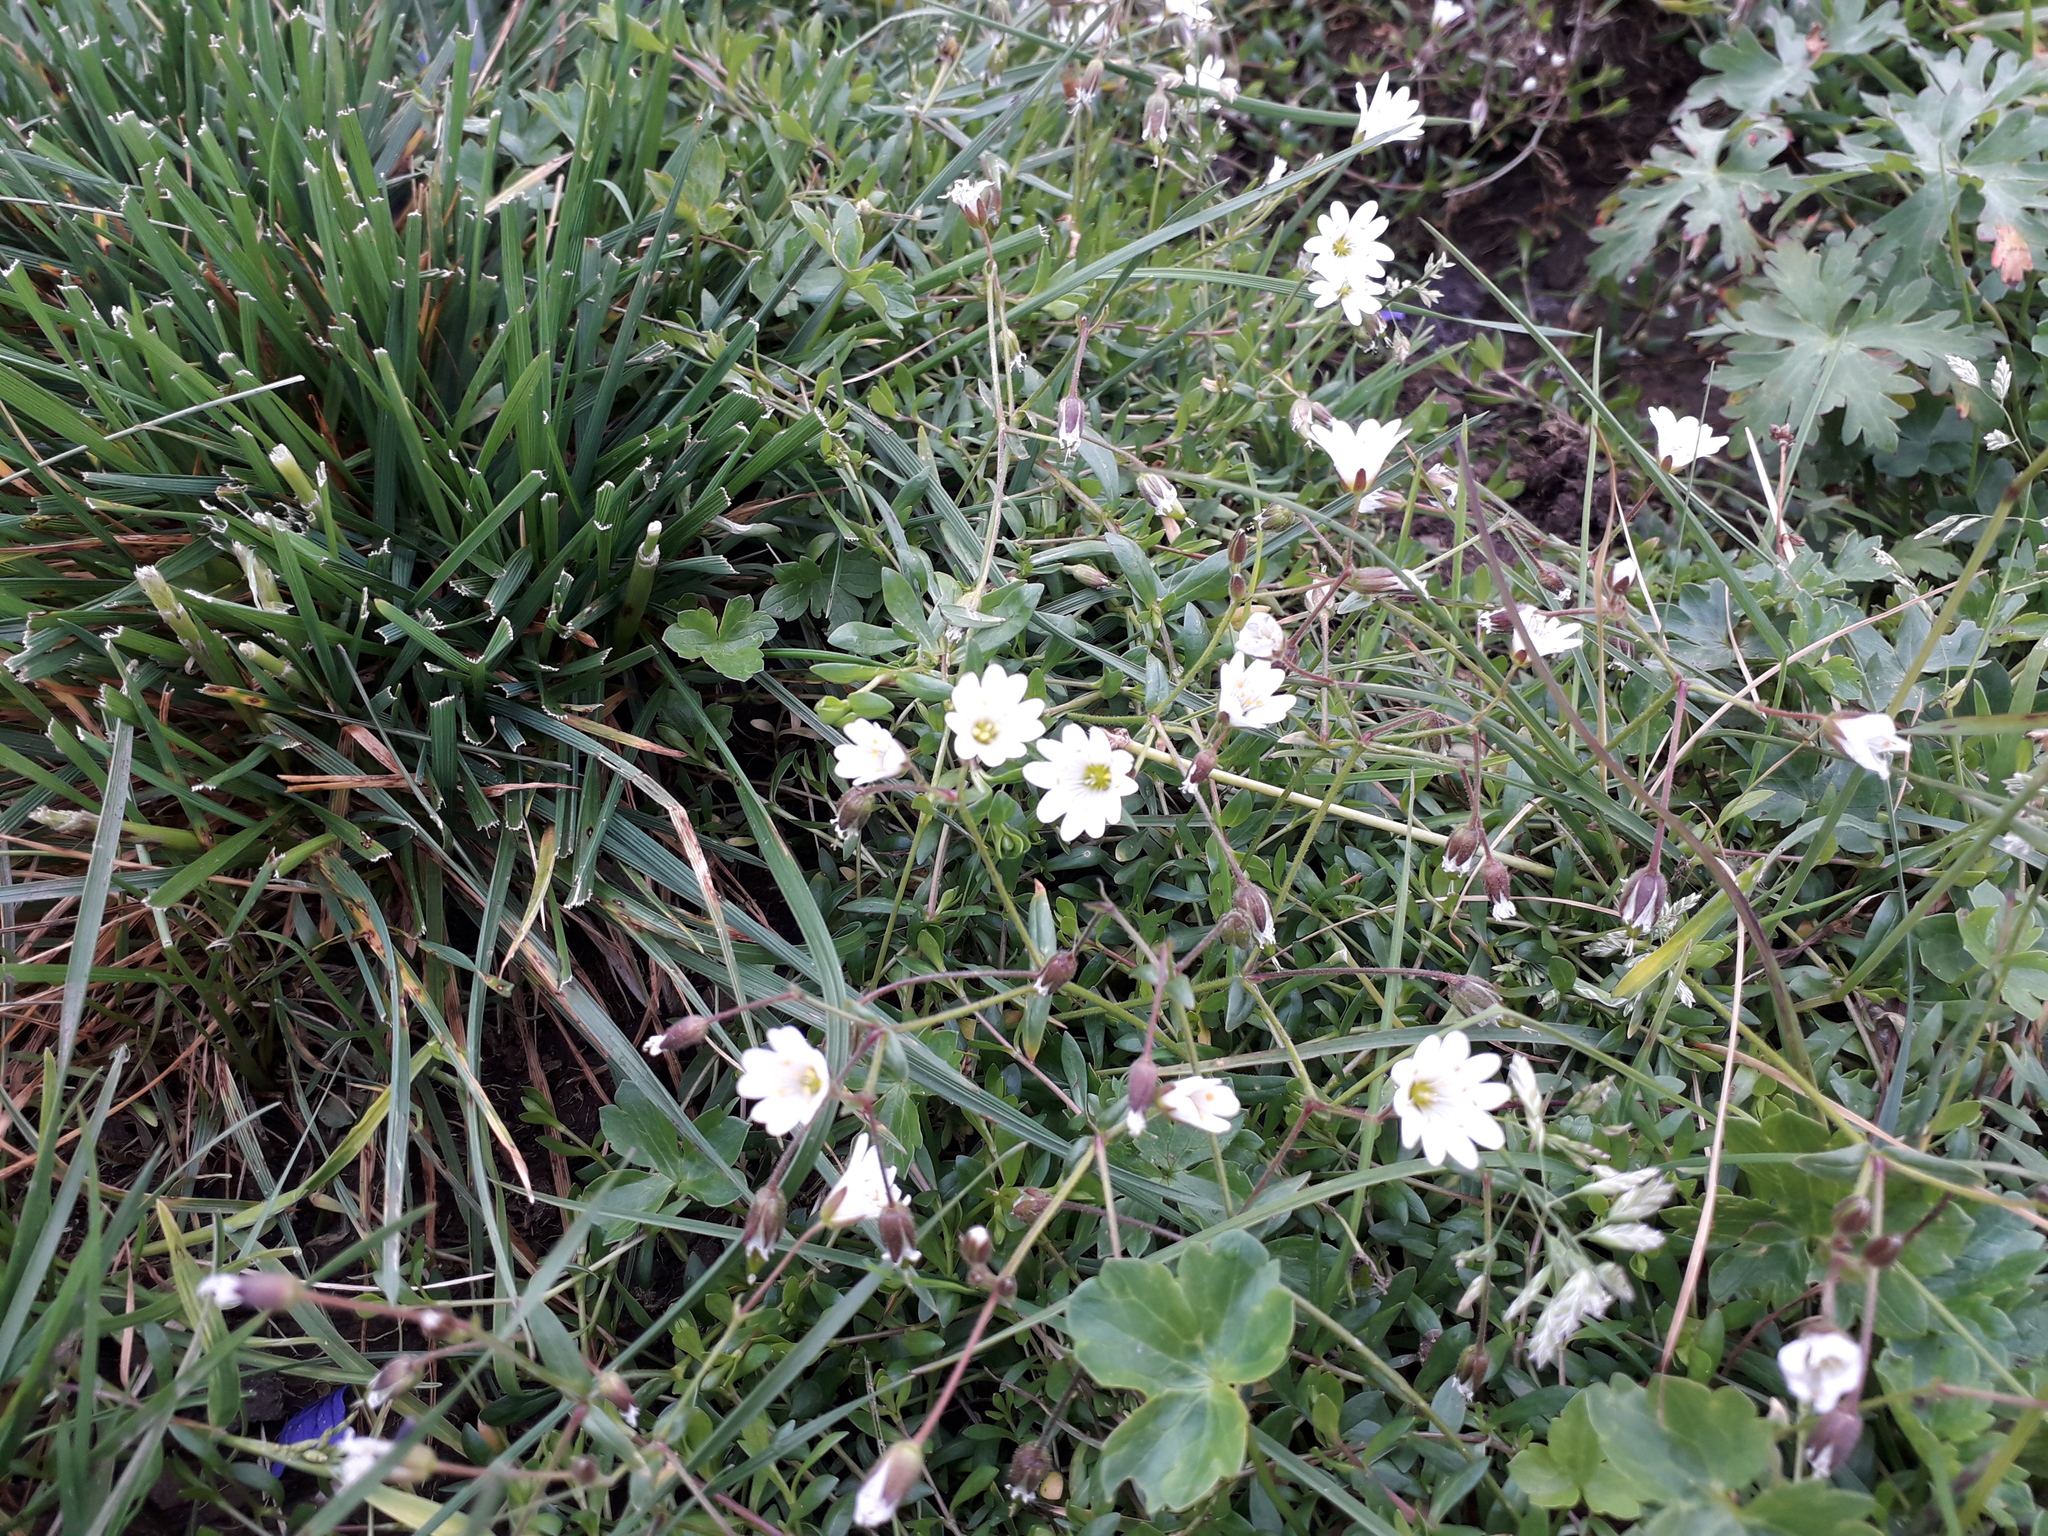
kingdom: Plantae
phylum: Tracheophyta
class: Magnoliopsida
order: Caryophyllales
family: Caryophyllaceae
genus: Dichodon
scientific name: Dichodon cerastoides
